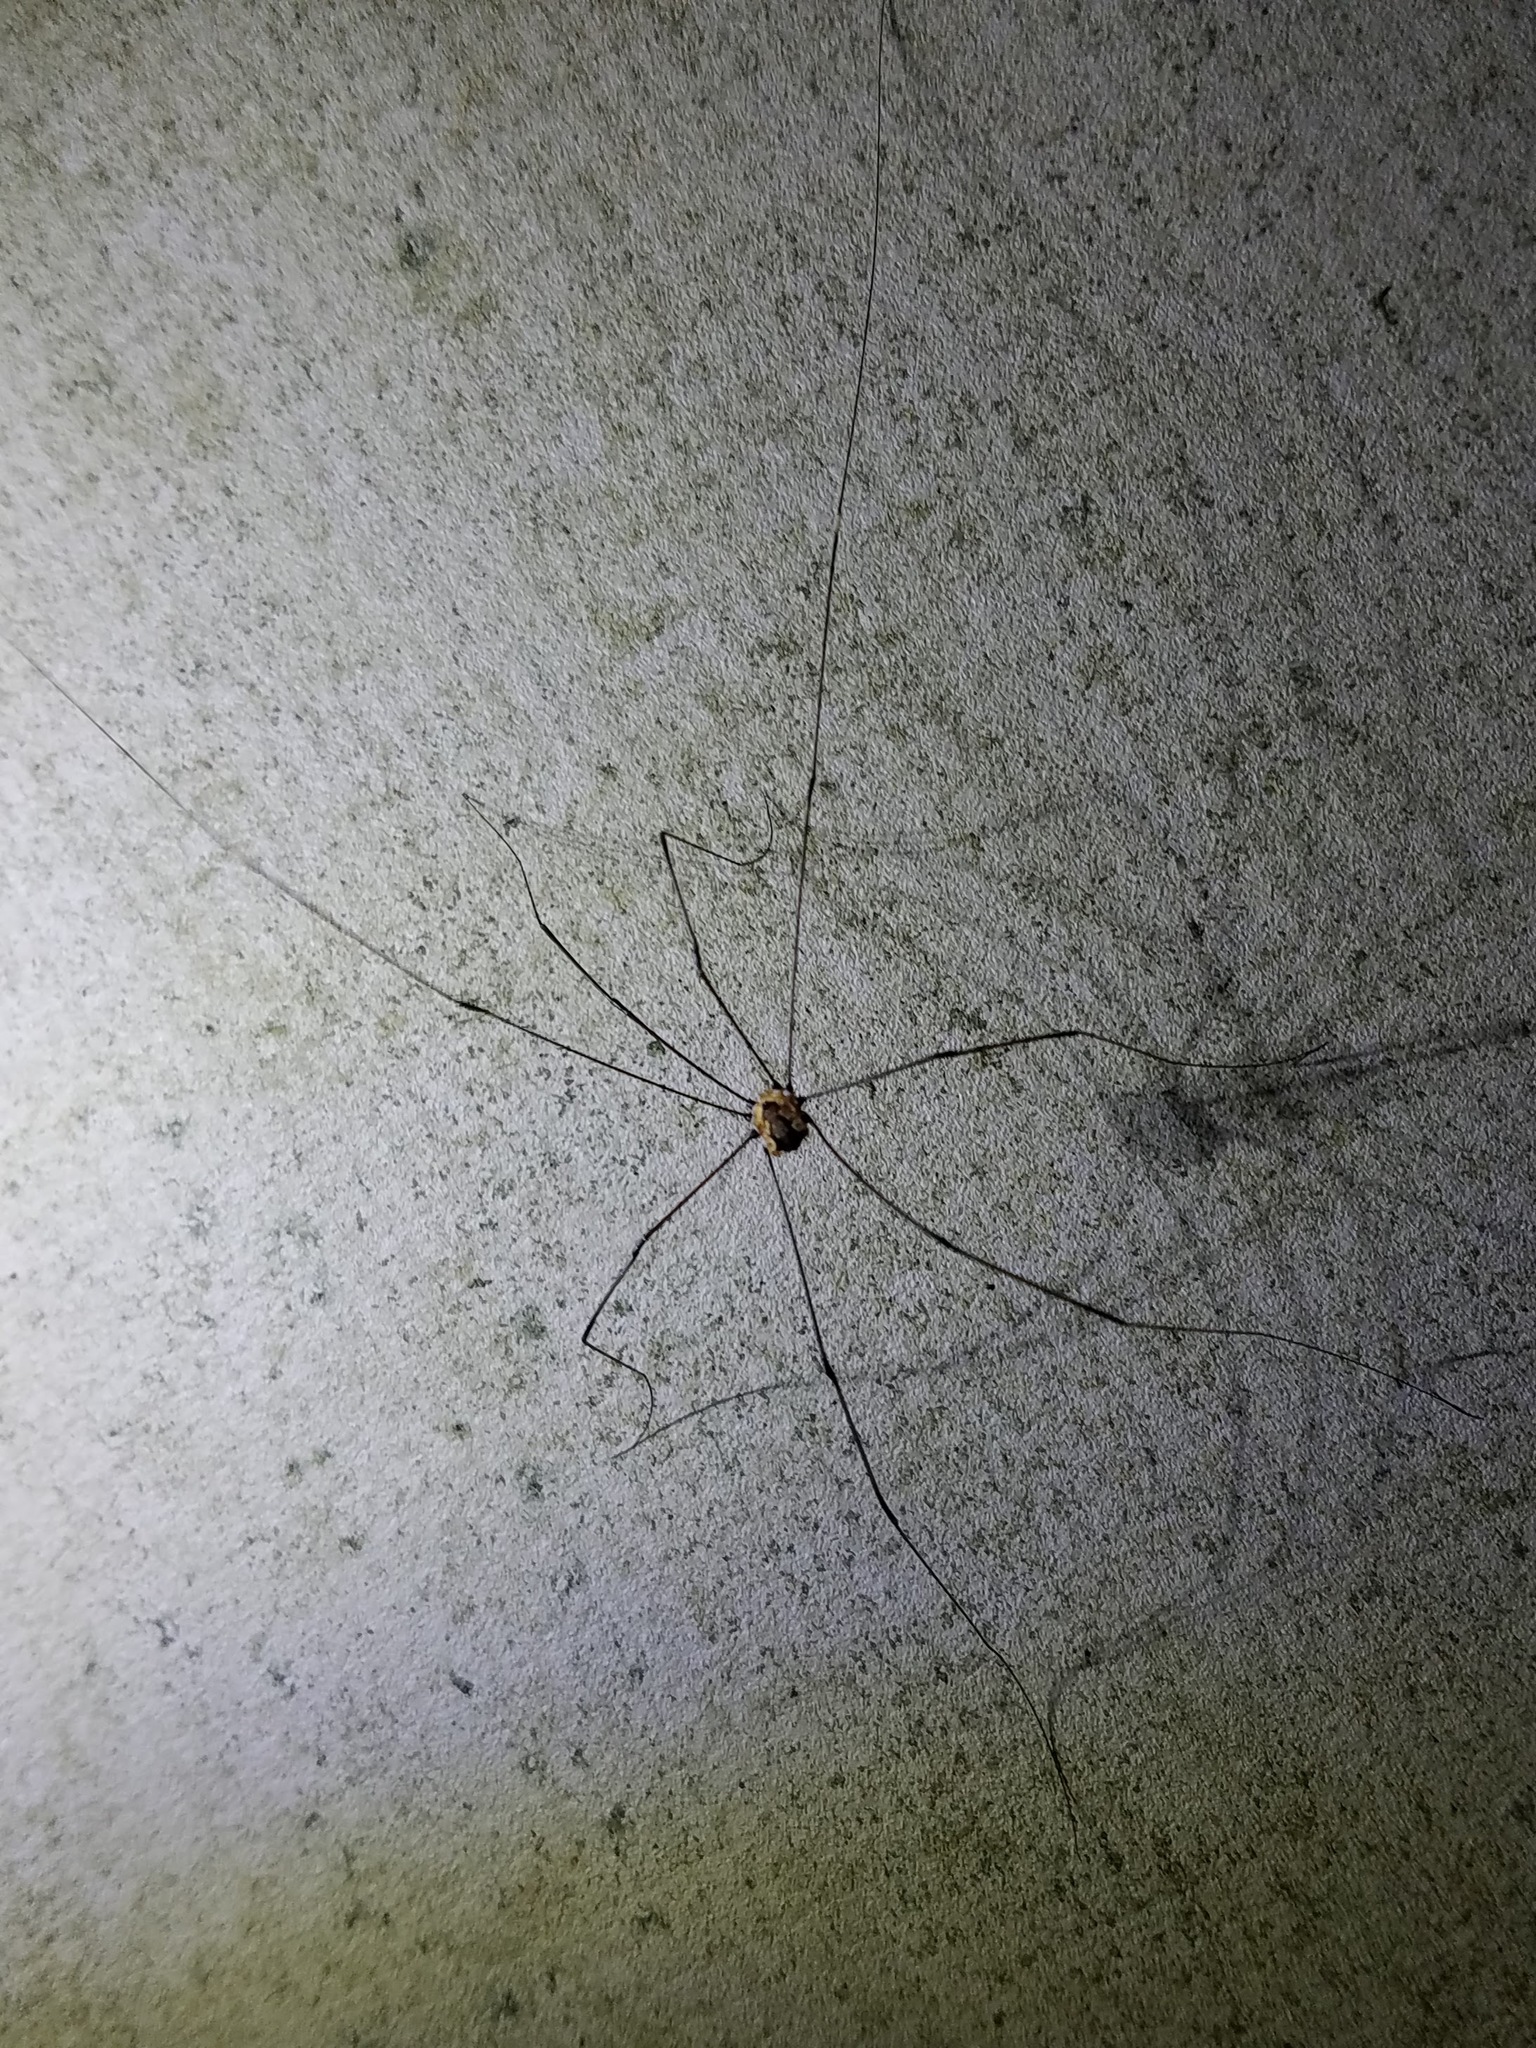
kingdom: Animalia
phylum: Arthropoda
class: Arachnida
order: Opiliones
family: Sclerosomatidae
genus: Leiobunum
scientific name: Leiobunum aldrichi
